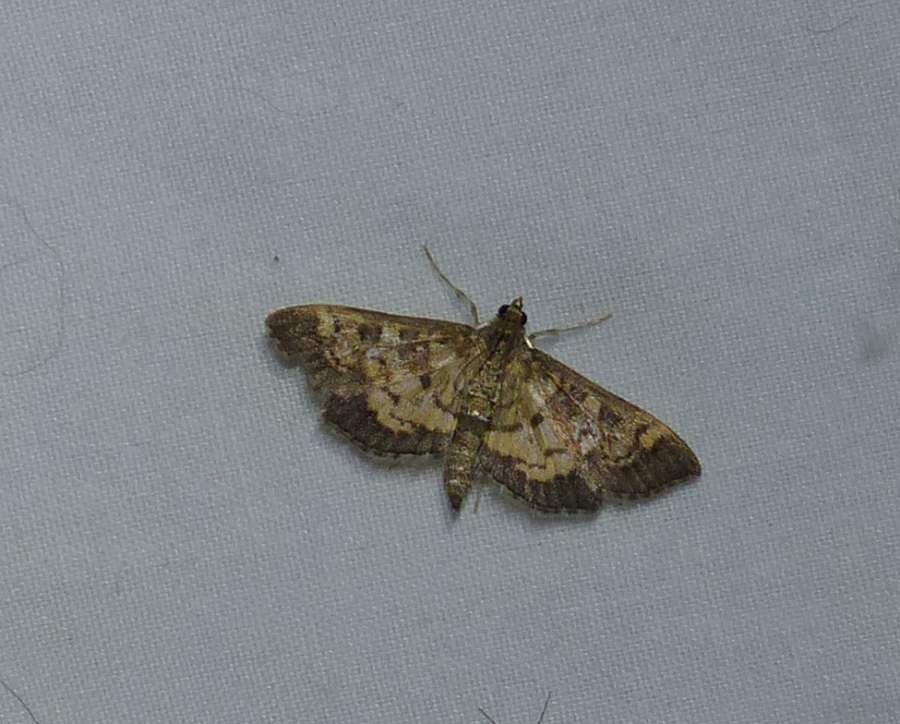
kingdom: Animalia
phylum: Arthropoda
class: Insecta
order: Lepidoptera
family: Crambidae
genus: Epipagis
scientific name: Epipagis adipaloides
